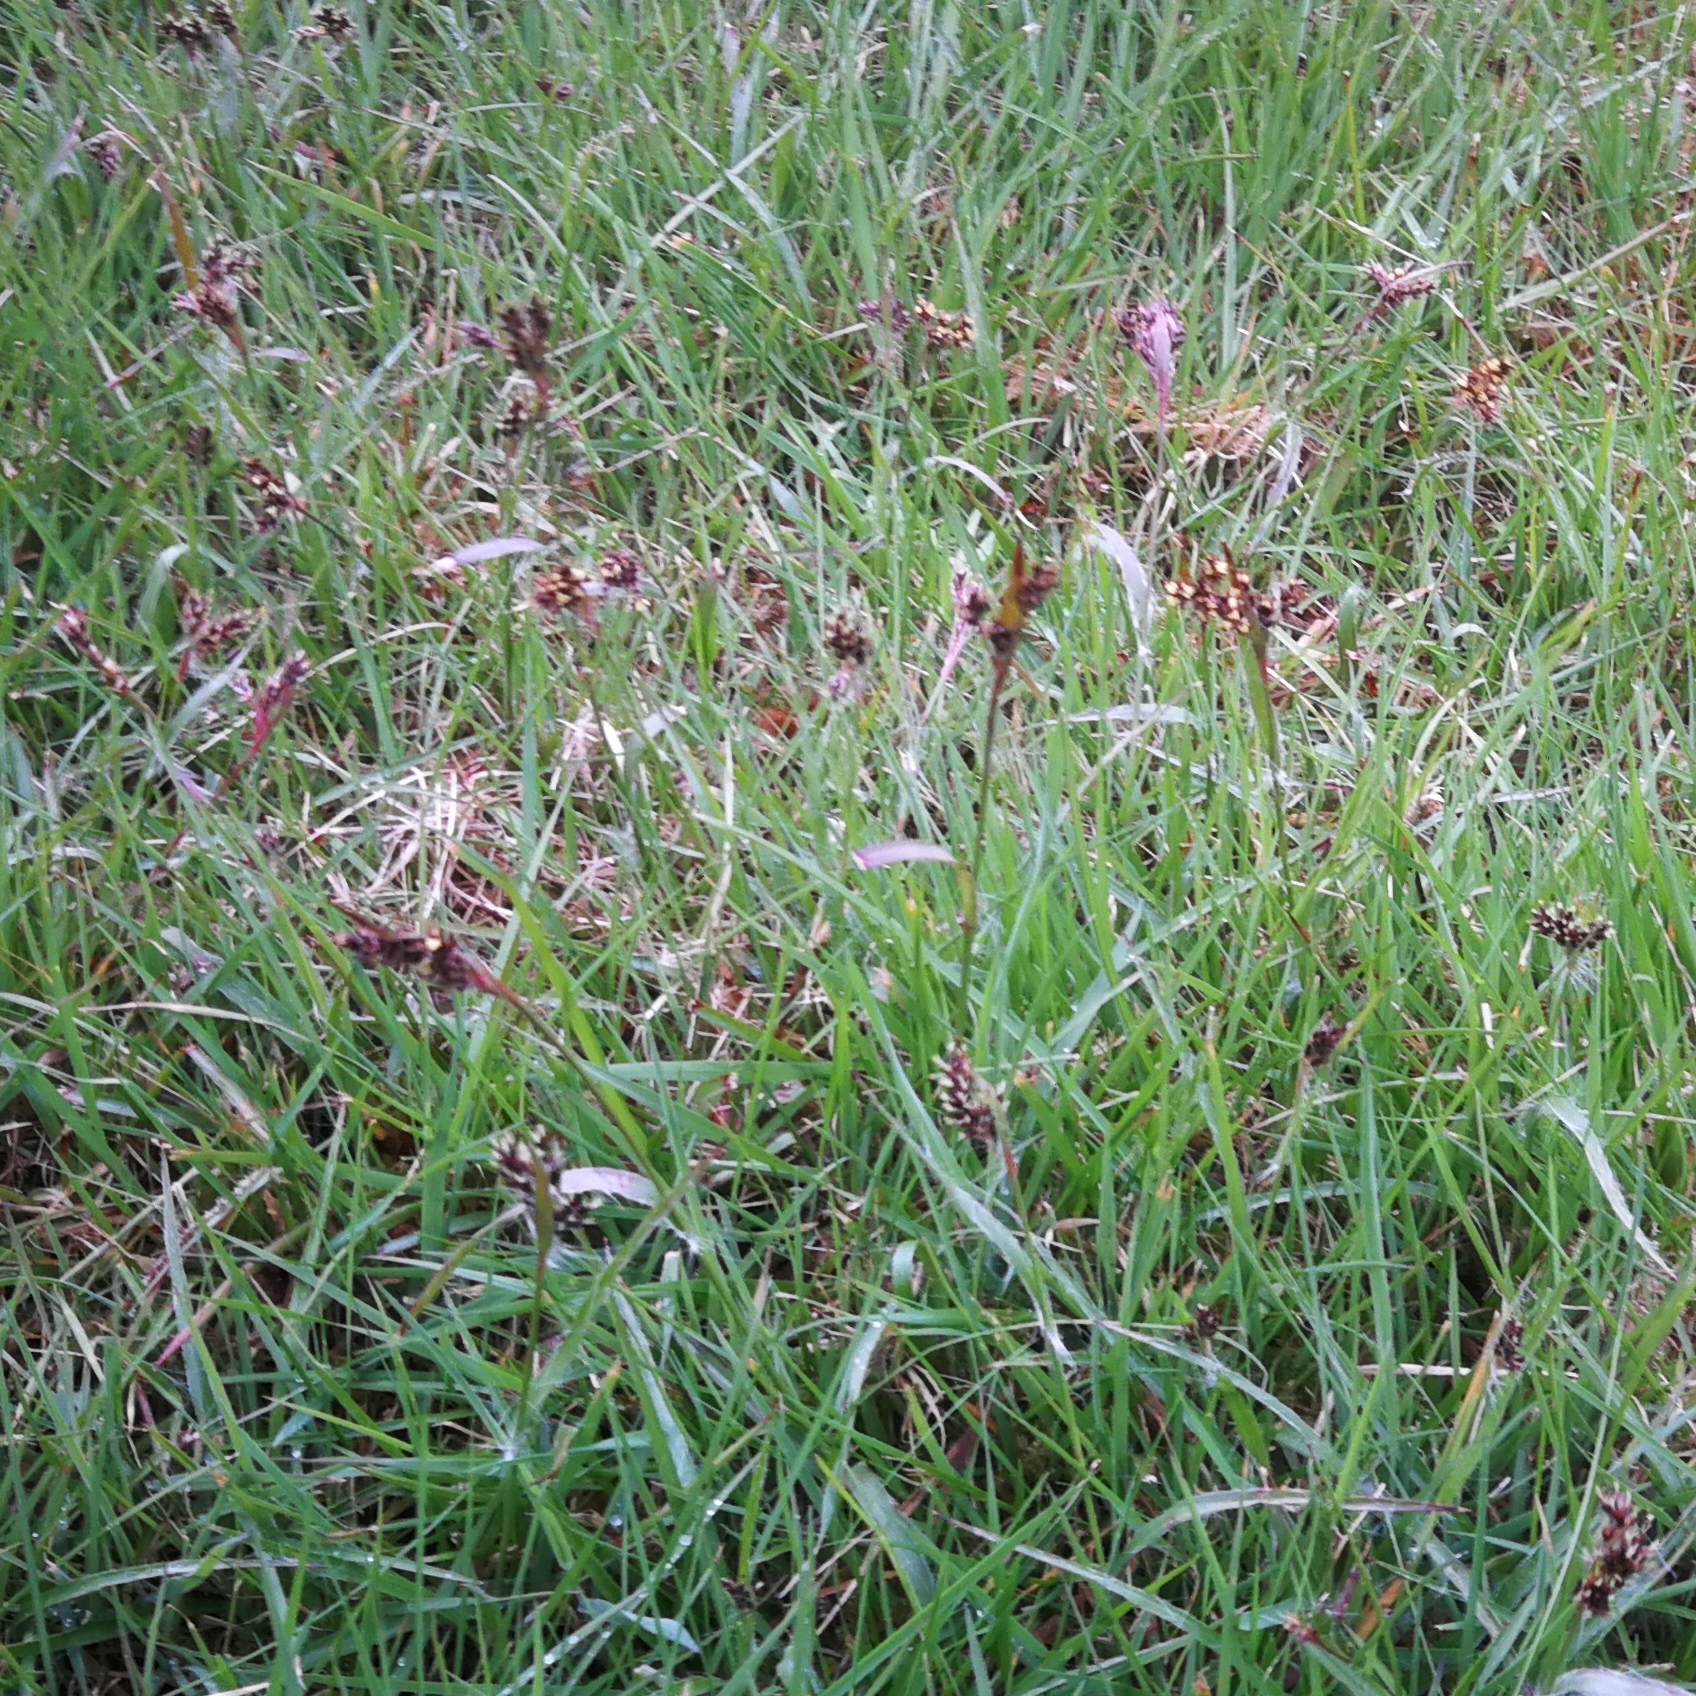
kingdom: Plantae
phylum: Tracheophyta
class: Liliopsida
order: Poales
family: Juncaceae
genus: Luzula
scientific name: Luzula campestris
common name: Field wood-rush
